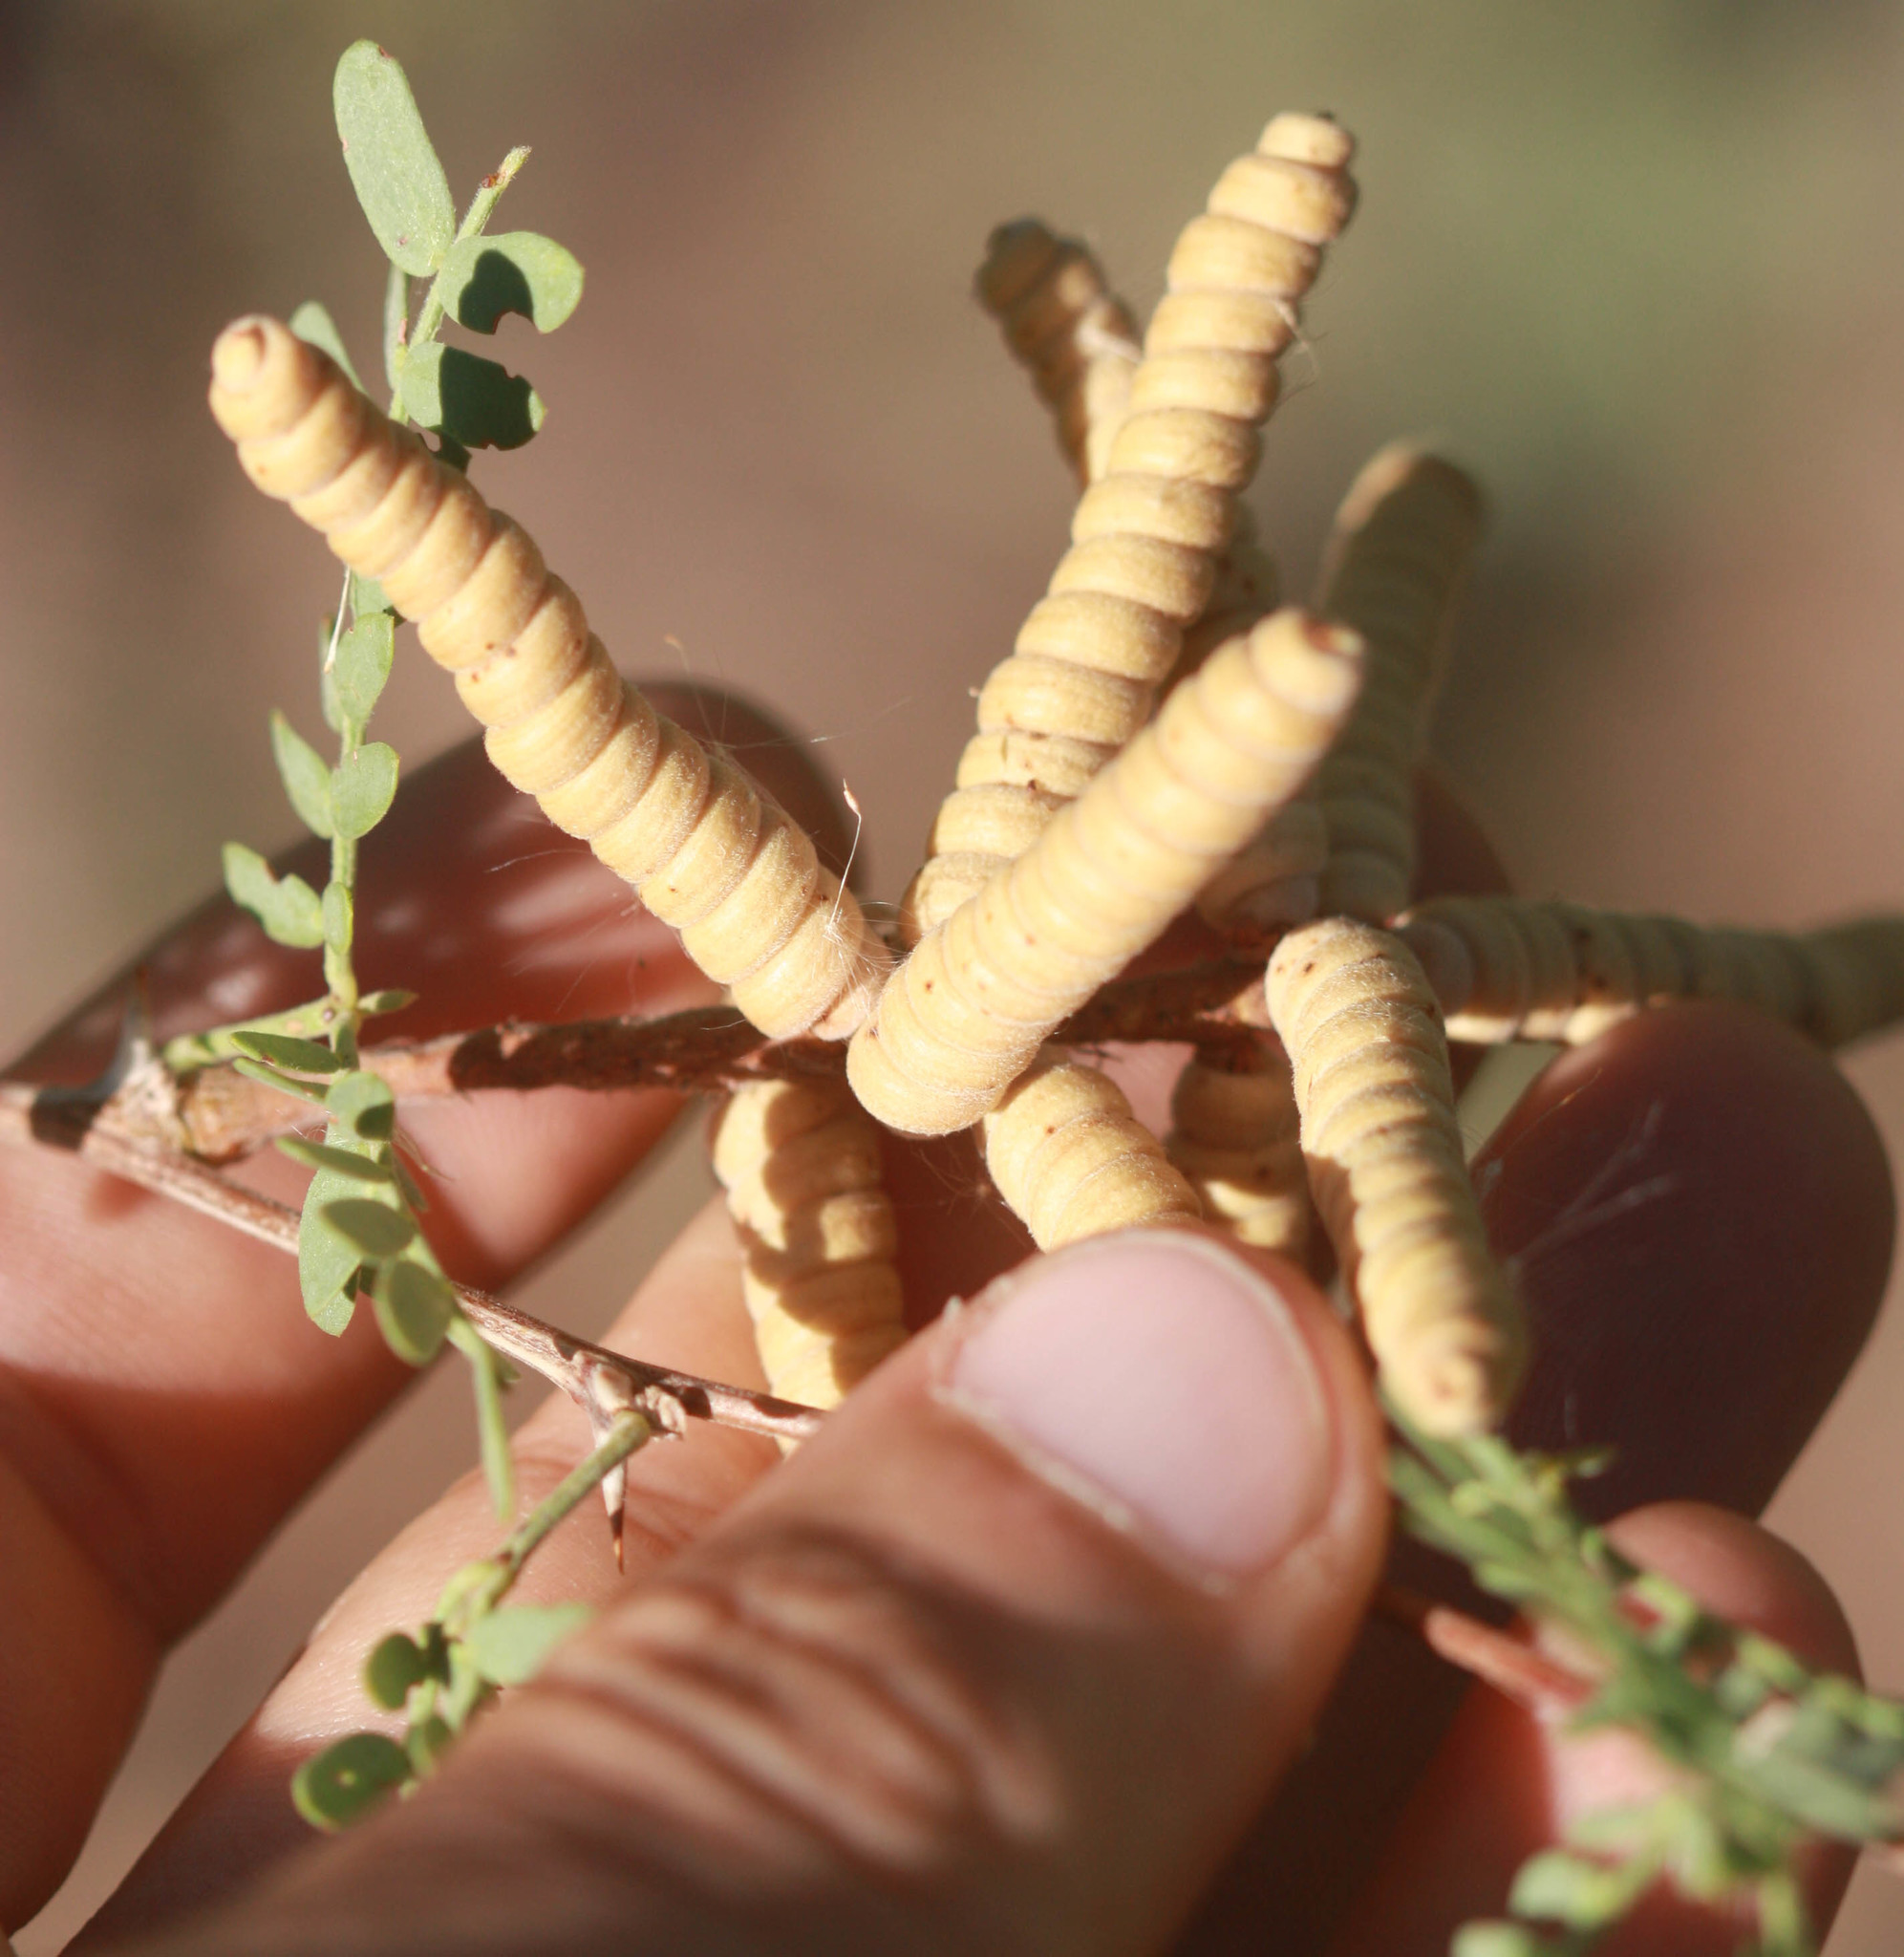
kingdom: Plantae
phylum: Tracheophyta
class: Magnoliopsida
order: Fabales
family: Fabaceae
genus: Prosopis
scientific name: Prosopis pubescens
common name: Screw-bean
